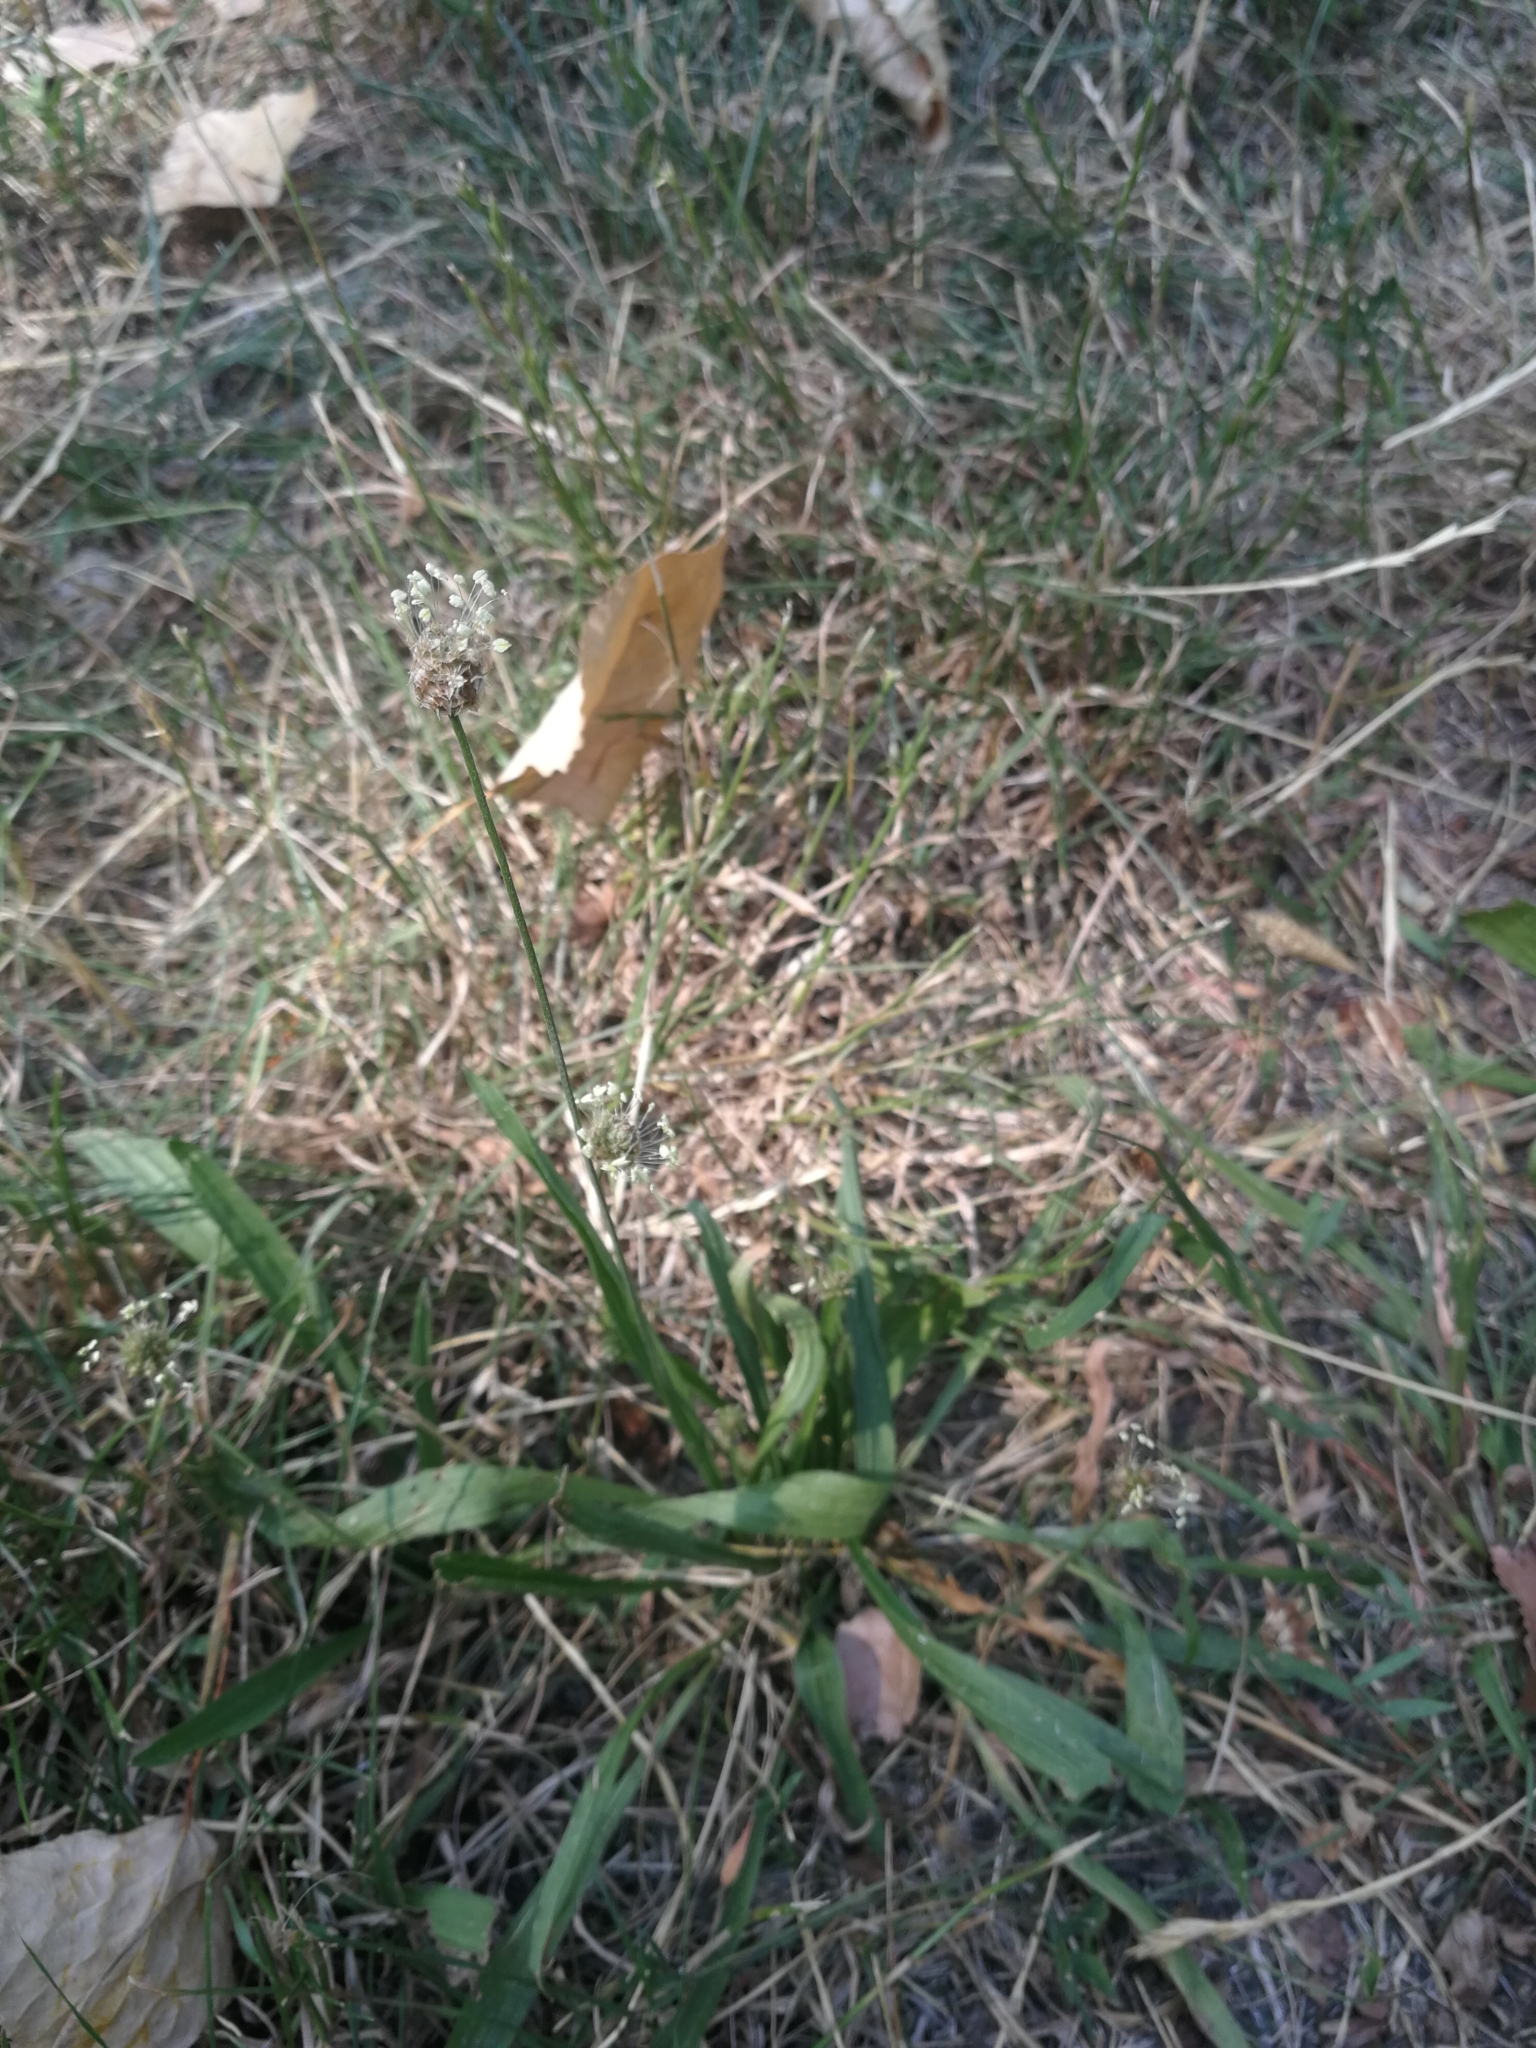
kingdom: Plantae
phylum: Tracheophyta
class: Magnoliopsida
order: Lamiales
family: Plantaginaceae
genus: Plantago
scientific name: Plantago lanceolata
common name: Ribwort plantain
